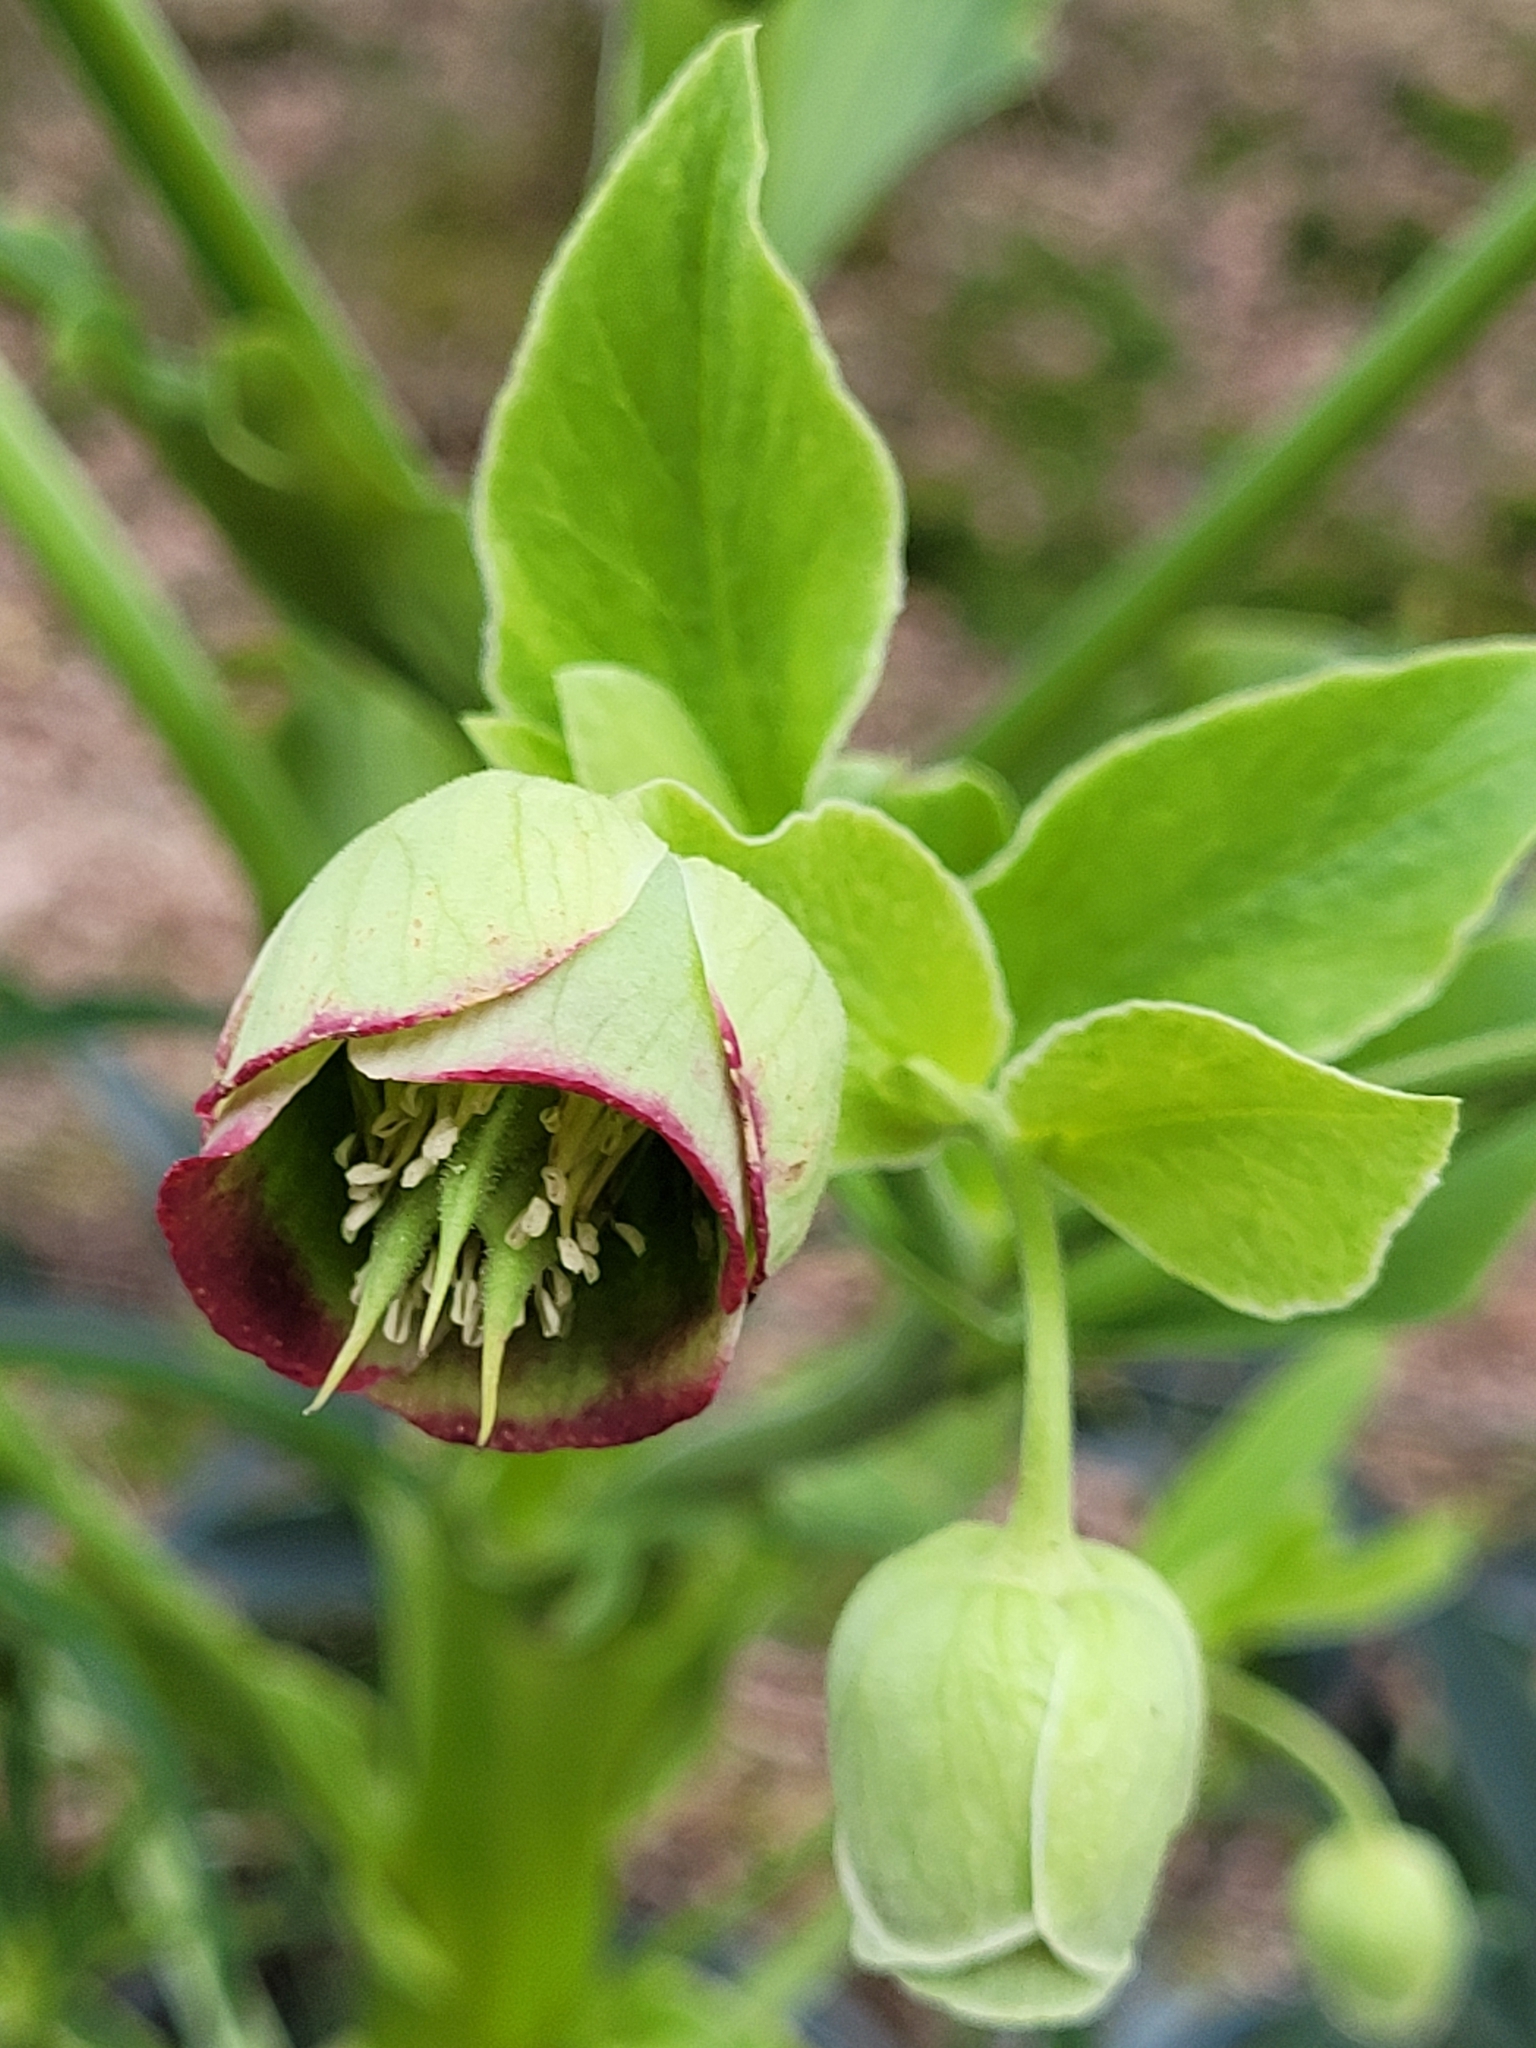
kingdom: Plantae
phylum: Tracheophyta
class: Magnoliopsida
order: Ranunculales
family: Ranunculaceae
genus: Helleborus
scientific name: Helleborus foetidus
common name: Stinking hellebore
